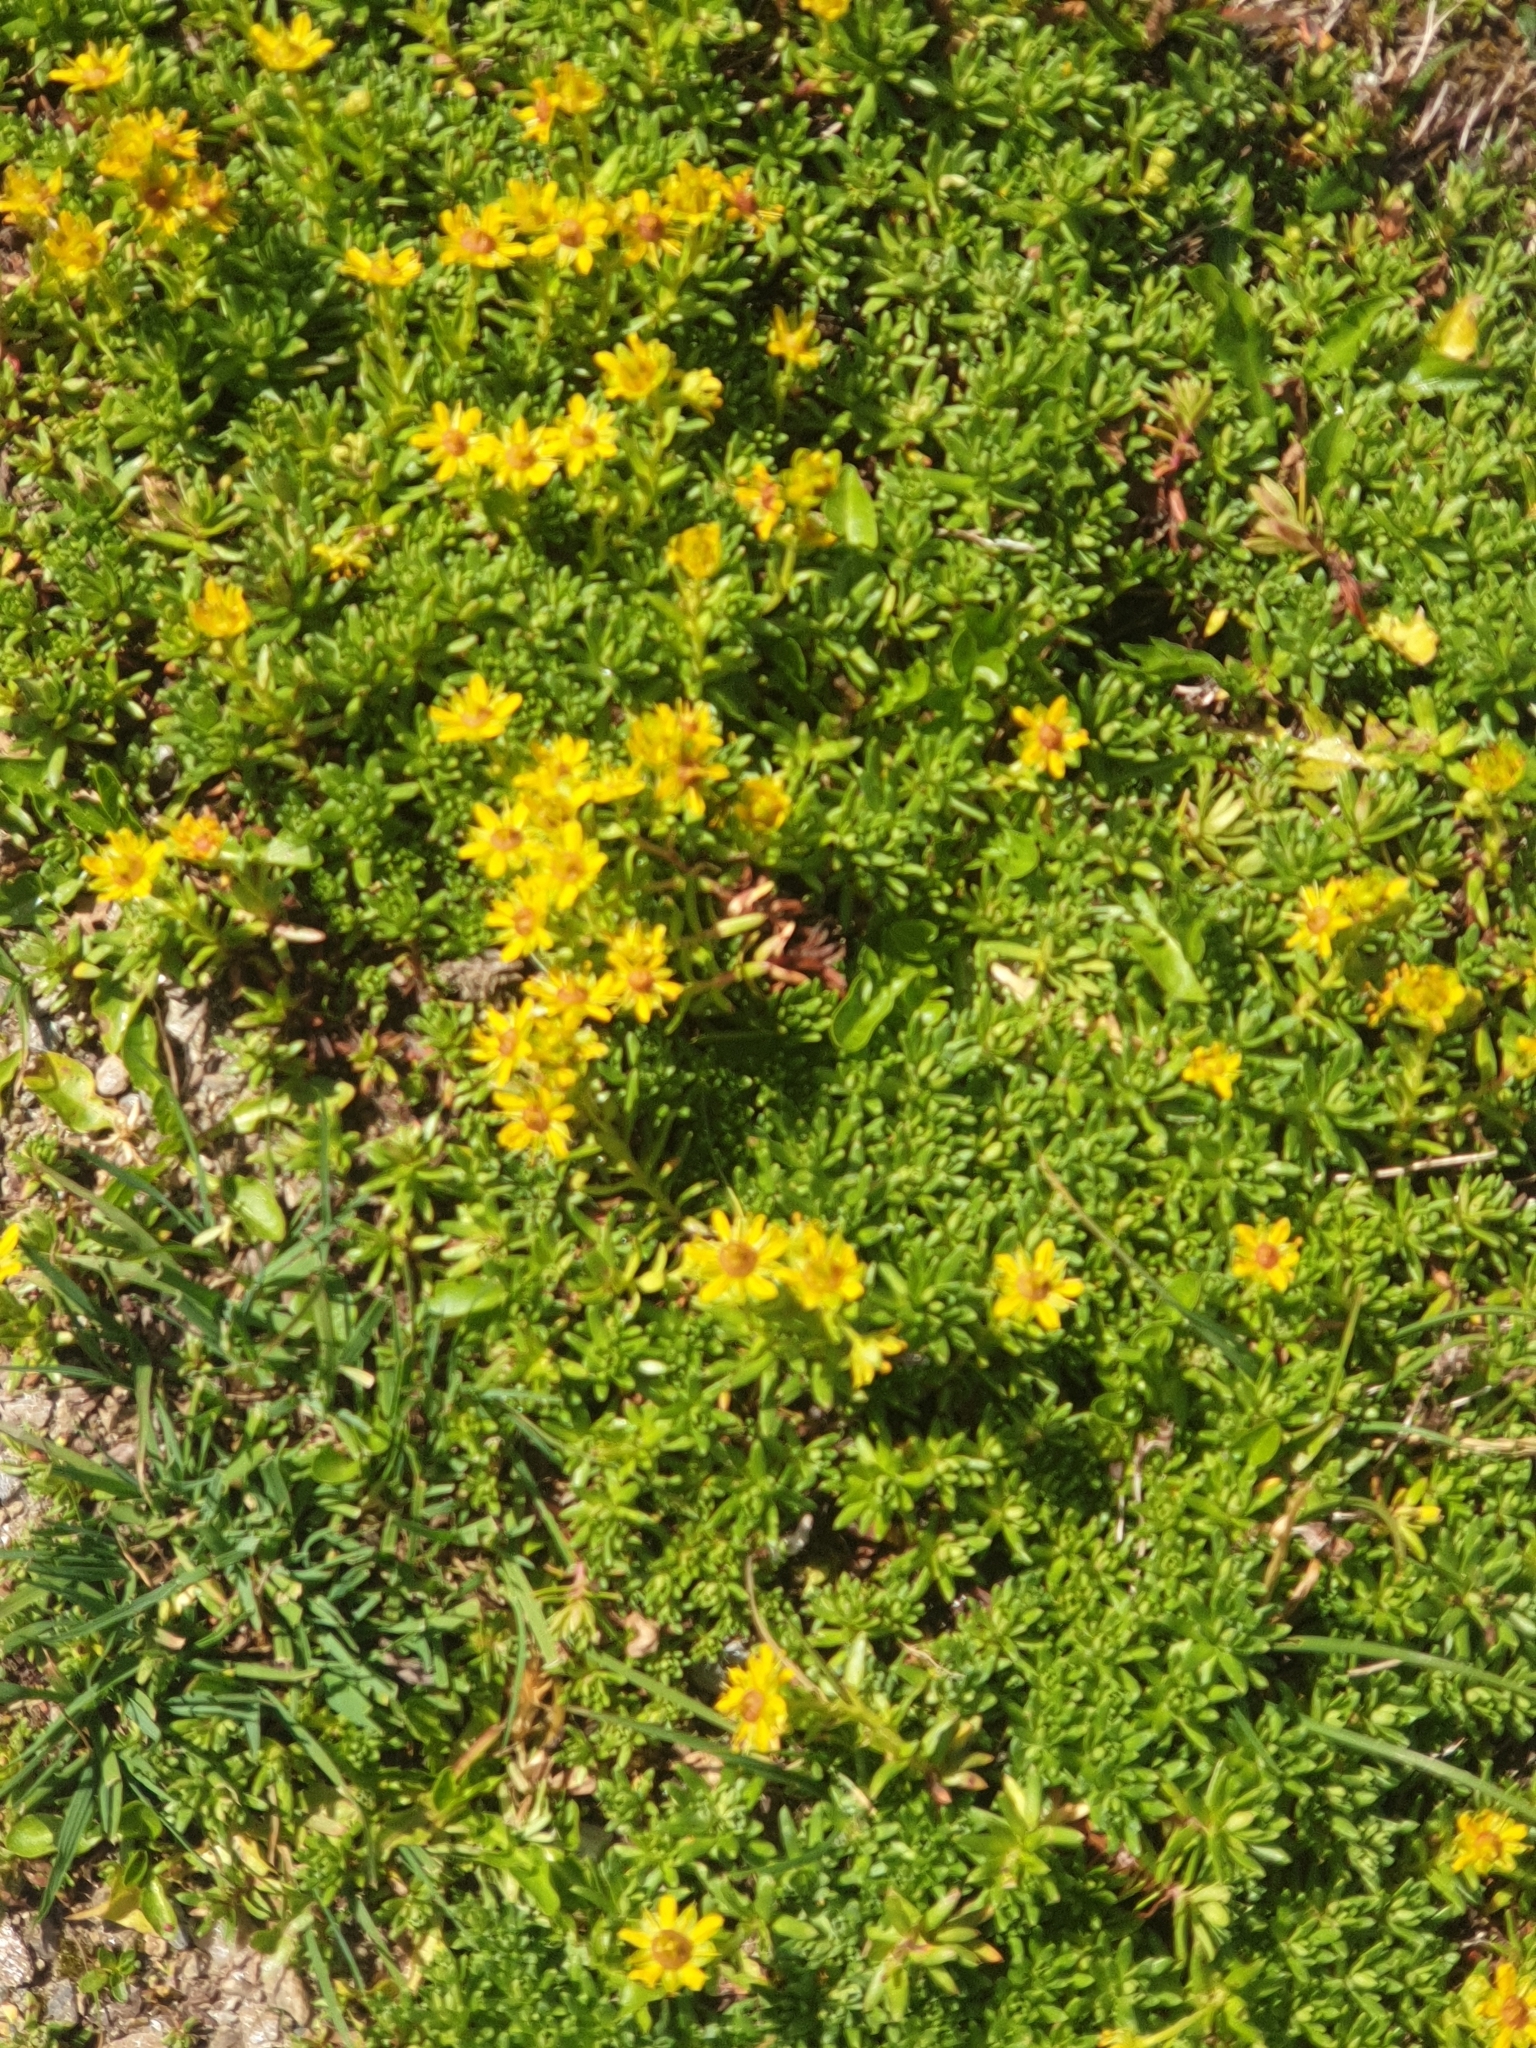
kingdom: Plantae
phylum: Tracheophyta
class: Magnoliopsida
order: Saxifragales
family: Saxifragaceae
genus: Saxifraga
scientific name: Saxifraga aizoides
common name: Yellow mountain saxifrage
